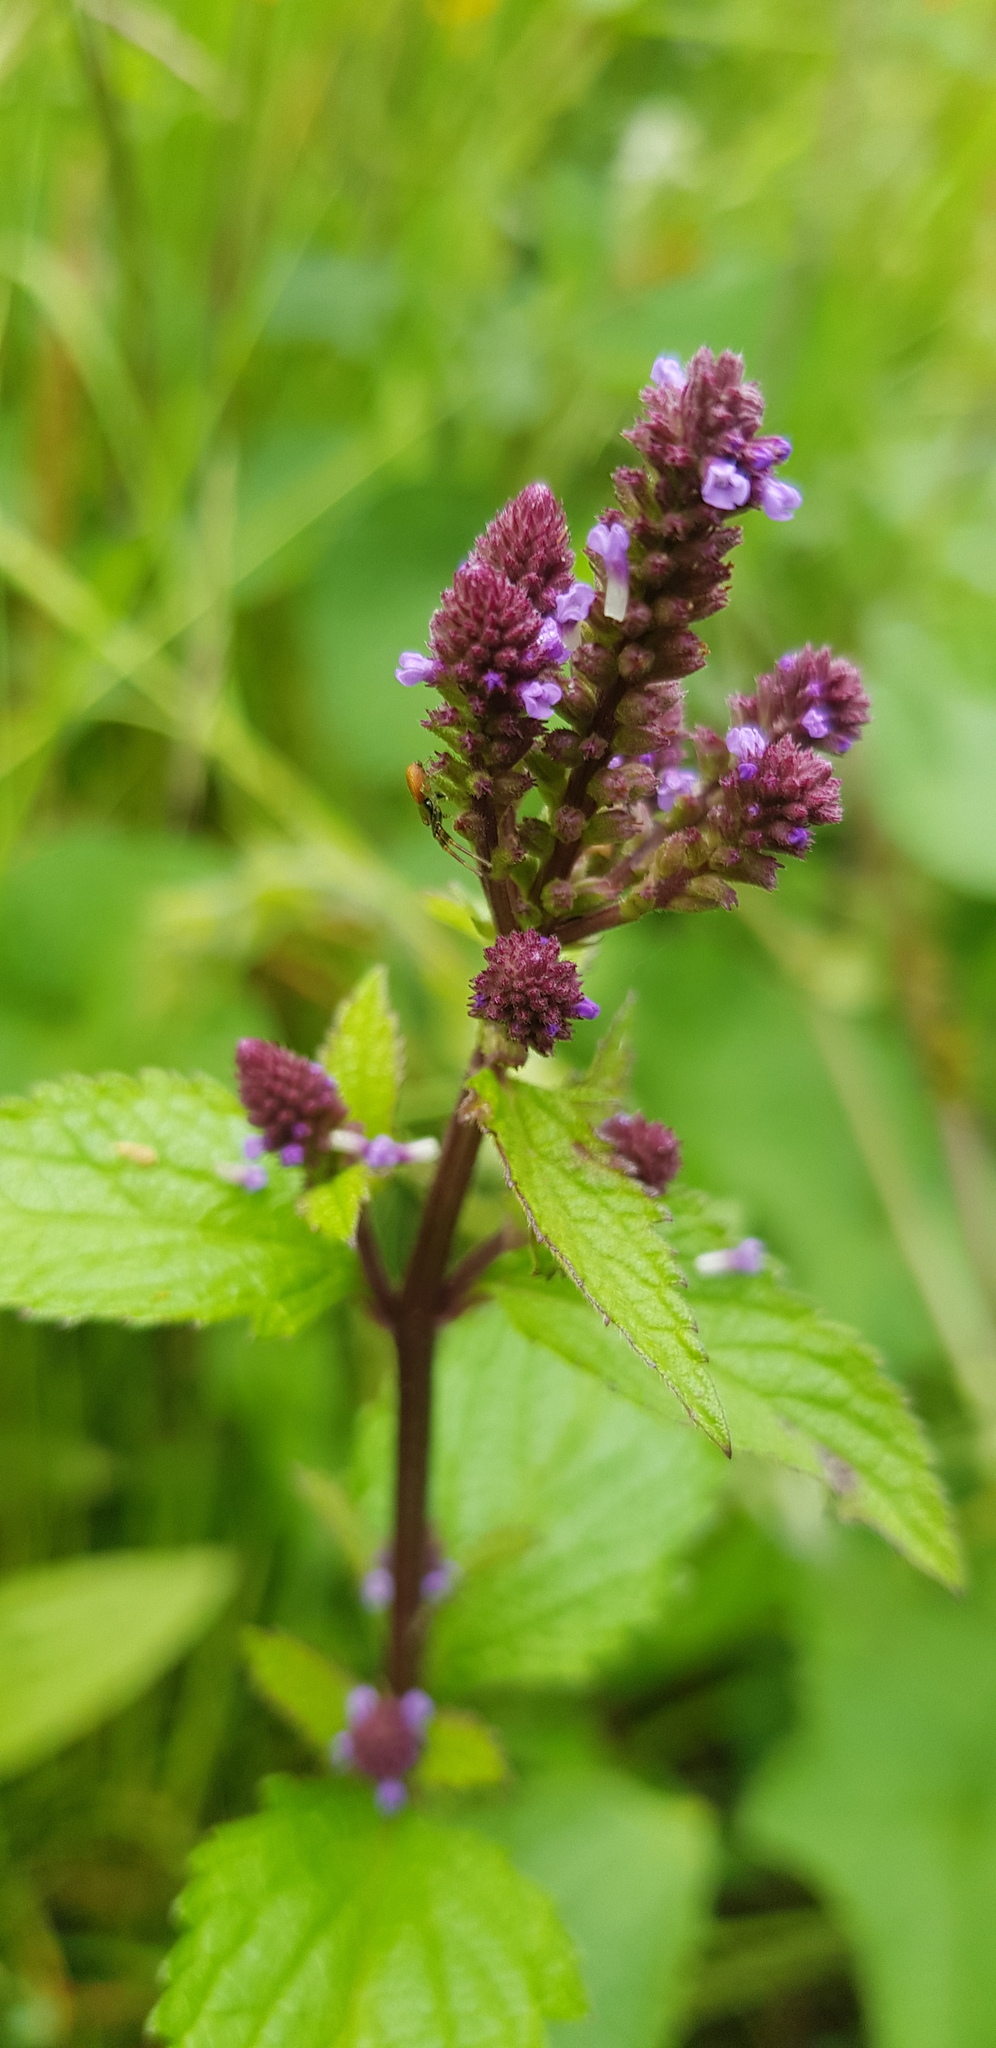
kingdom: Plantae
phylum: Tracheophyta
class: Magnoliopsida
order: Lamiales
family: Verbenaceae
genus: Verbena
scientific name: Verbena carolina
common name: Carolina vervain
